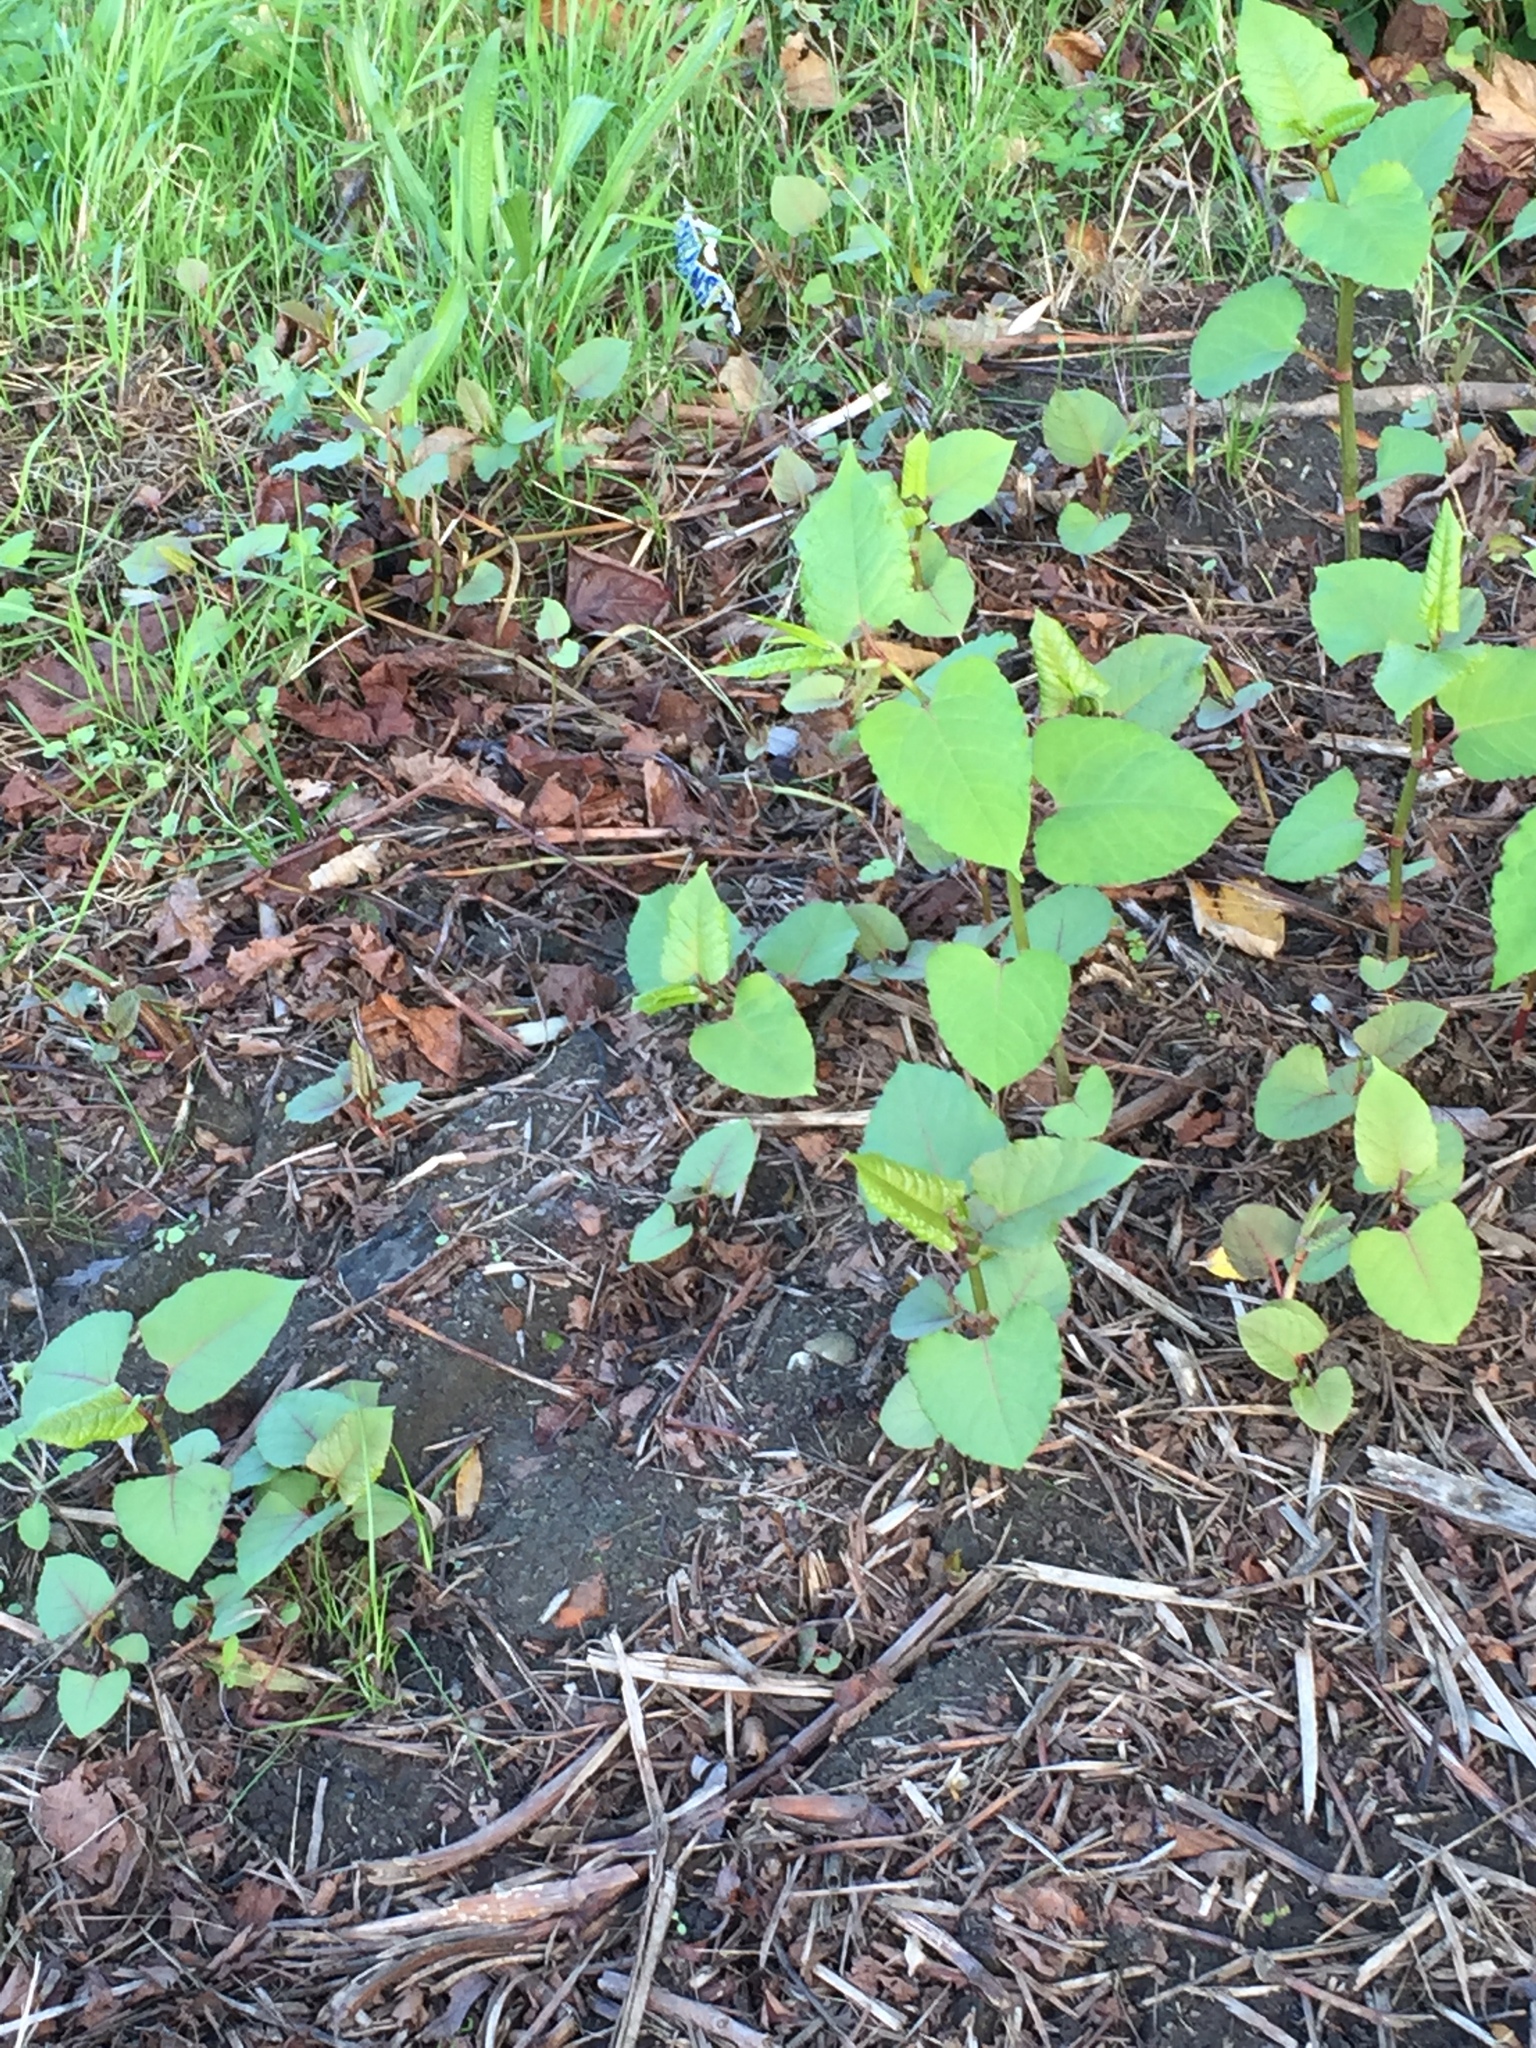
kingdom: Plantae
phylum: Tracheophyta
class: Magnoliopsida
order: Caryophyllales
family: Polygonaceae
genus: Reynoutria
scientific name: Reynoutria japonica
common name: Japanese knotweed
